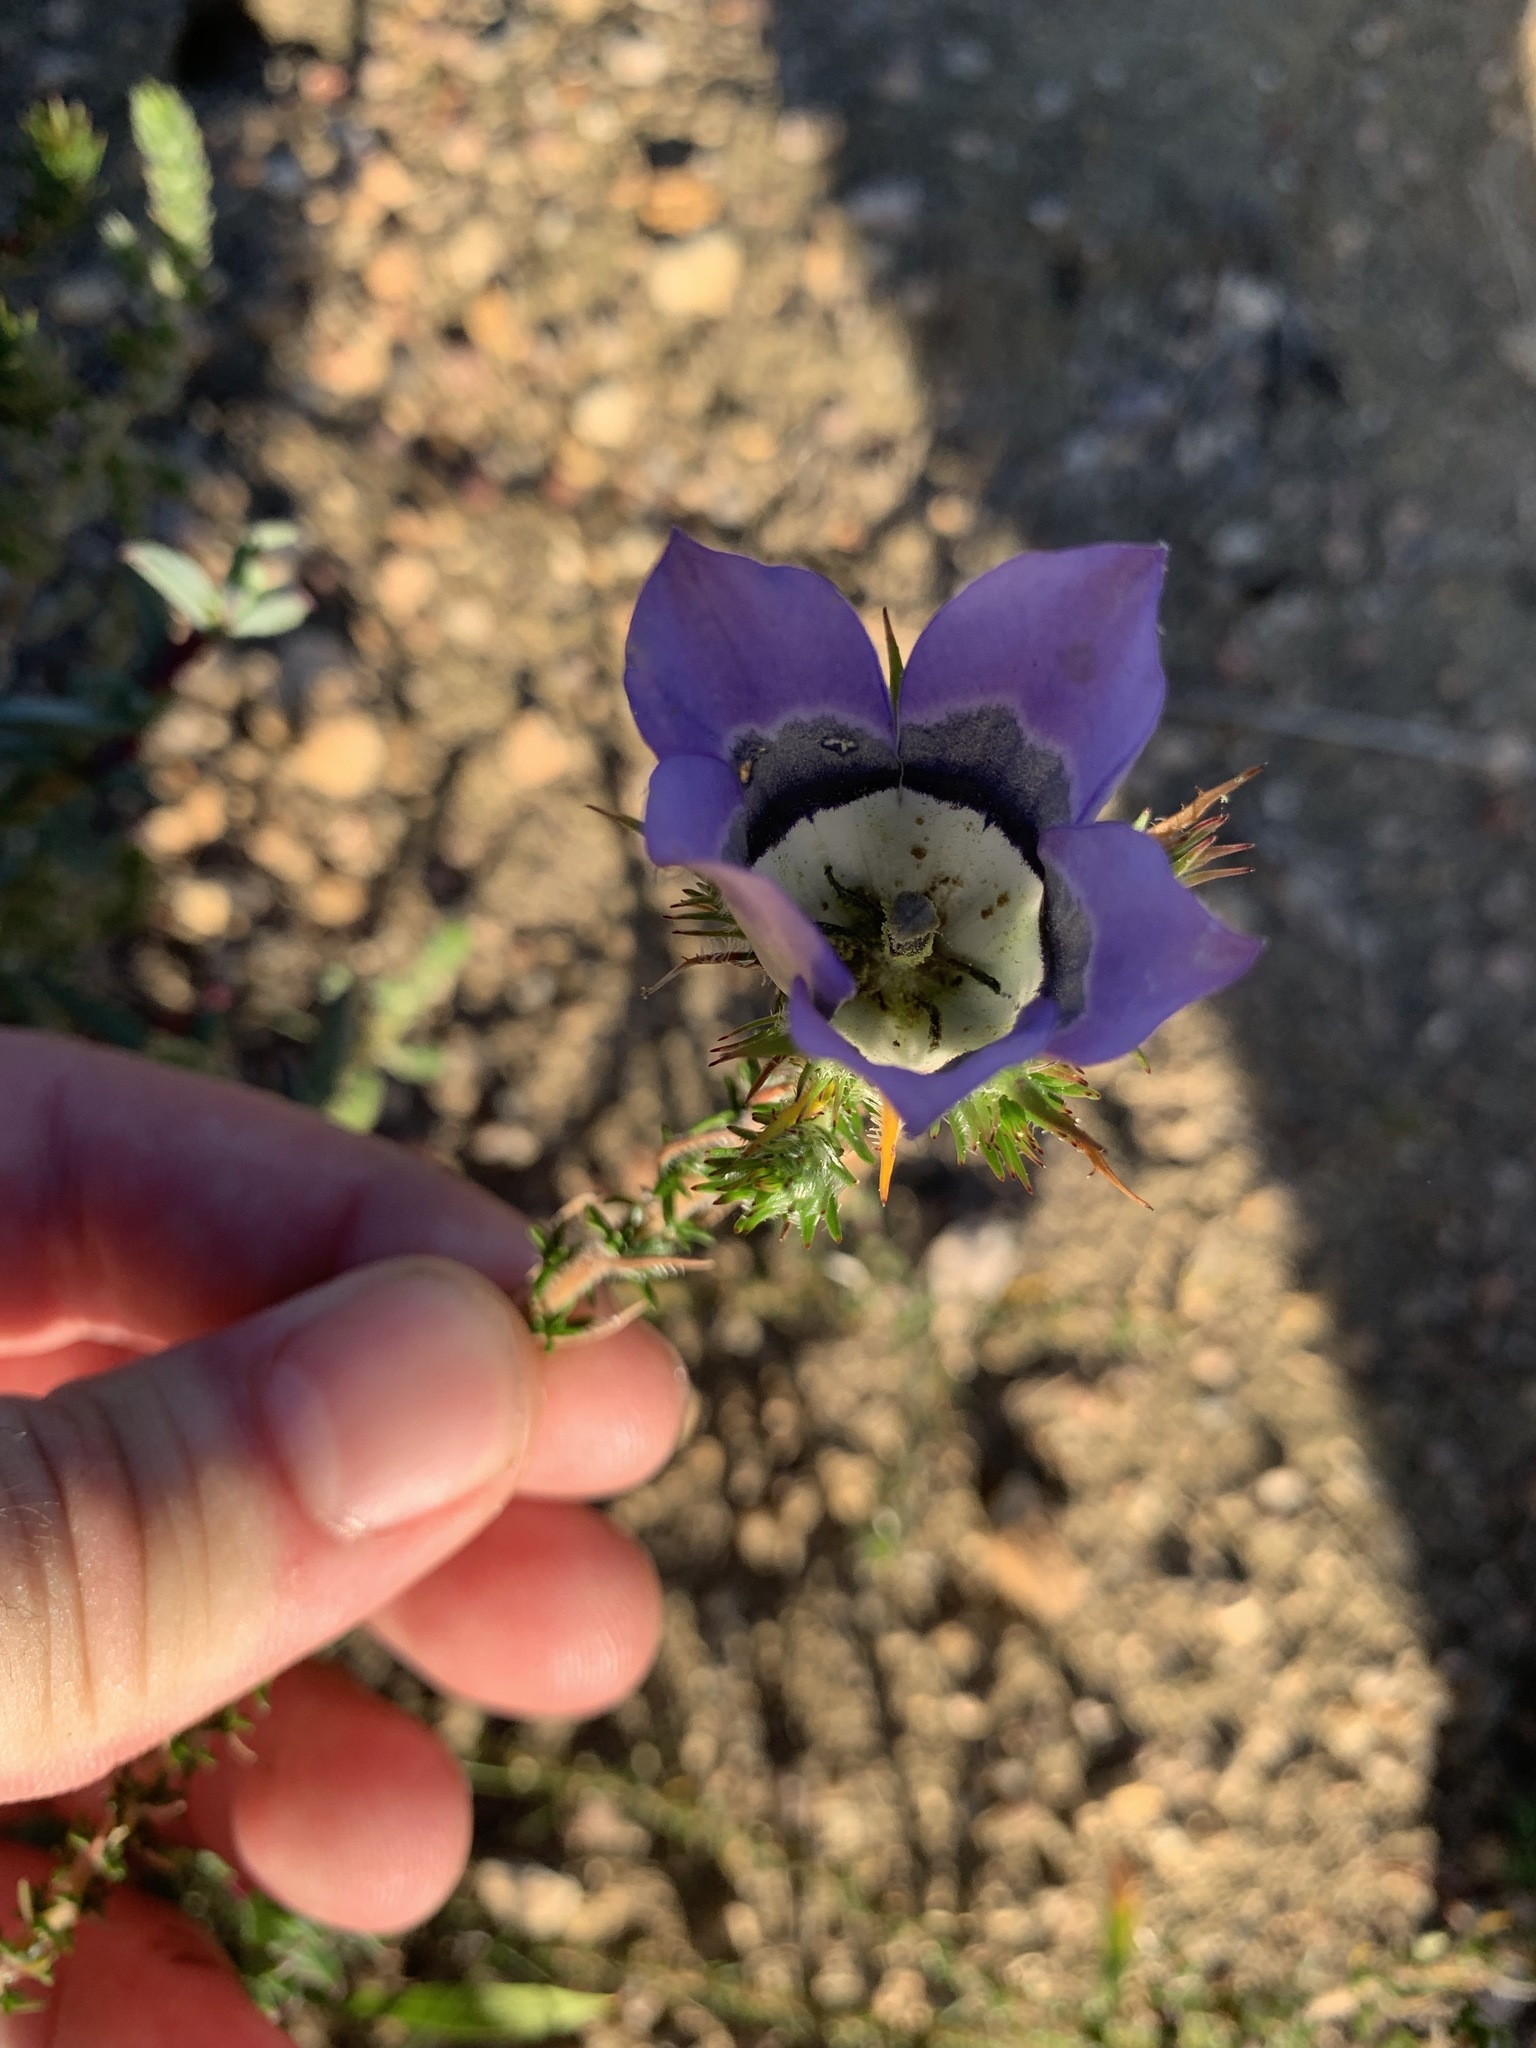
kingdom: Plantae
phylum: Tracheophyta
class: Magnoliopsida
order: Asterales
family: Campanulaceae
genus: Roella
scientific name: Roella ciliata
